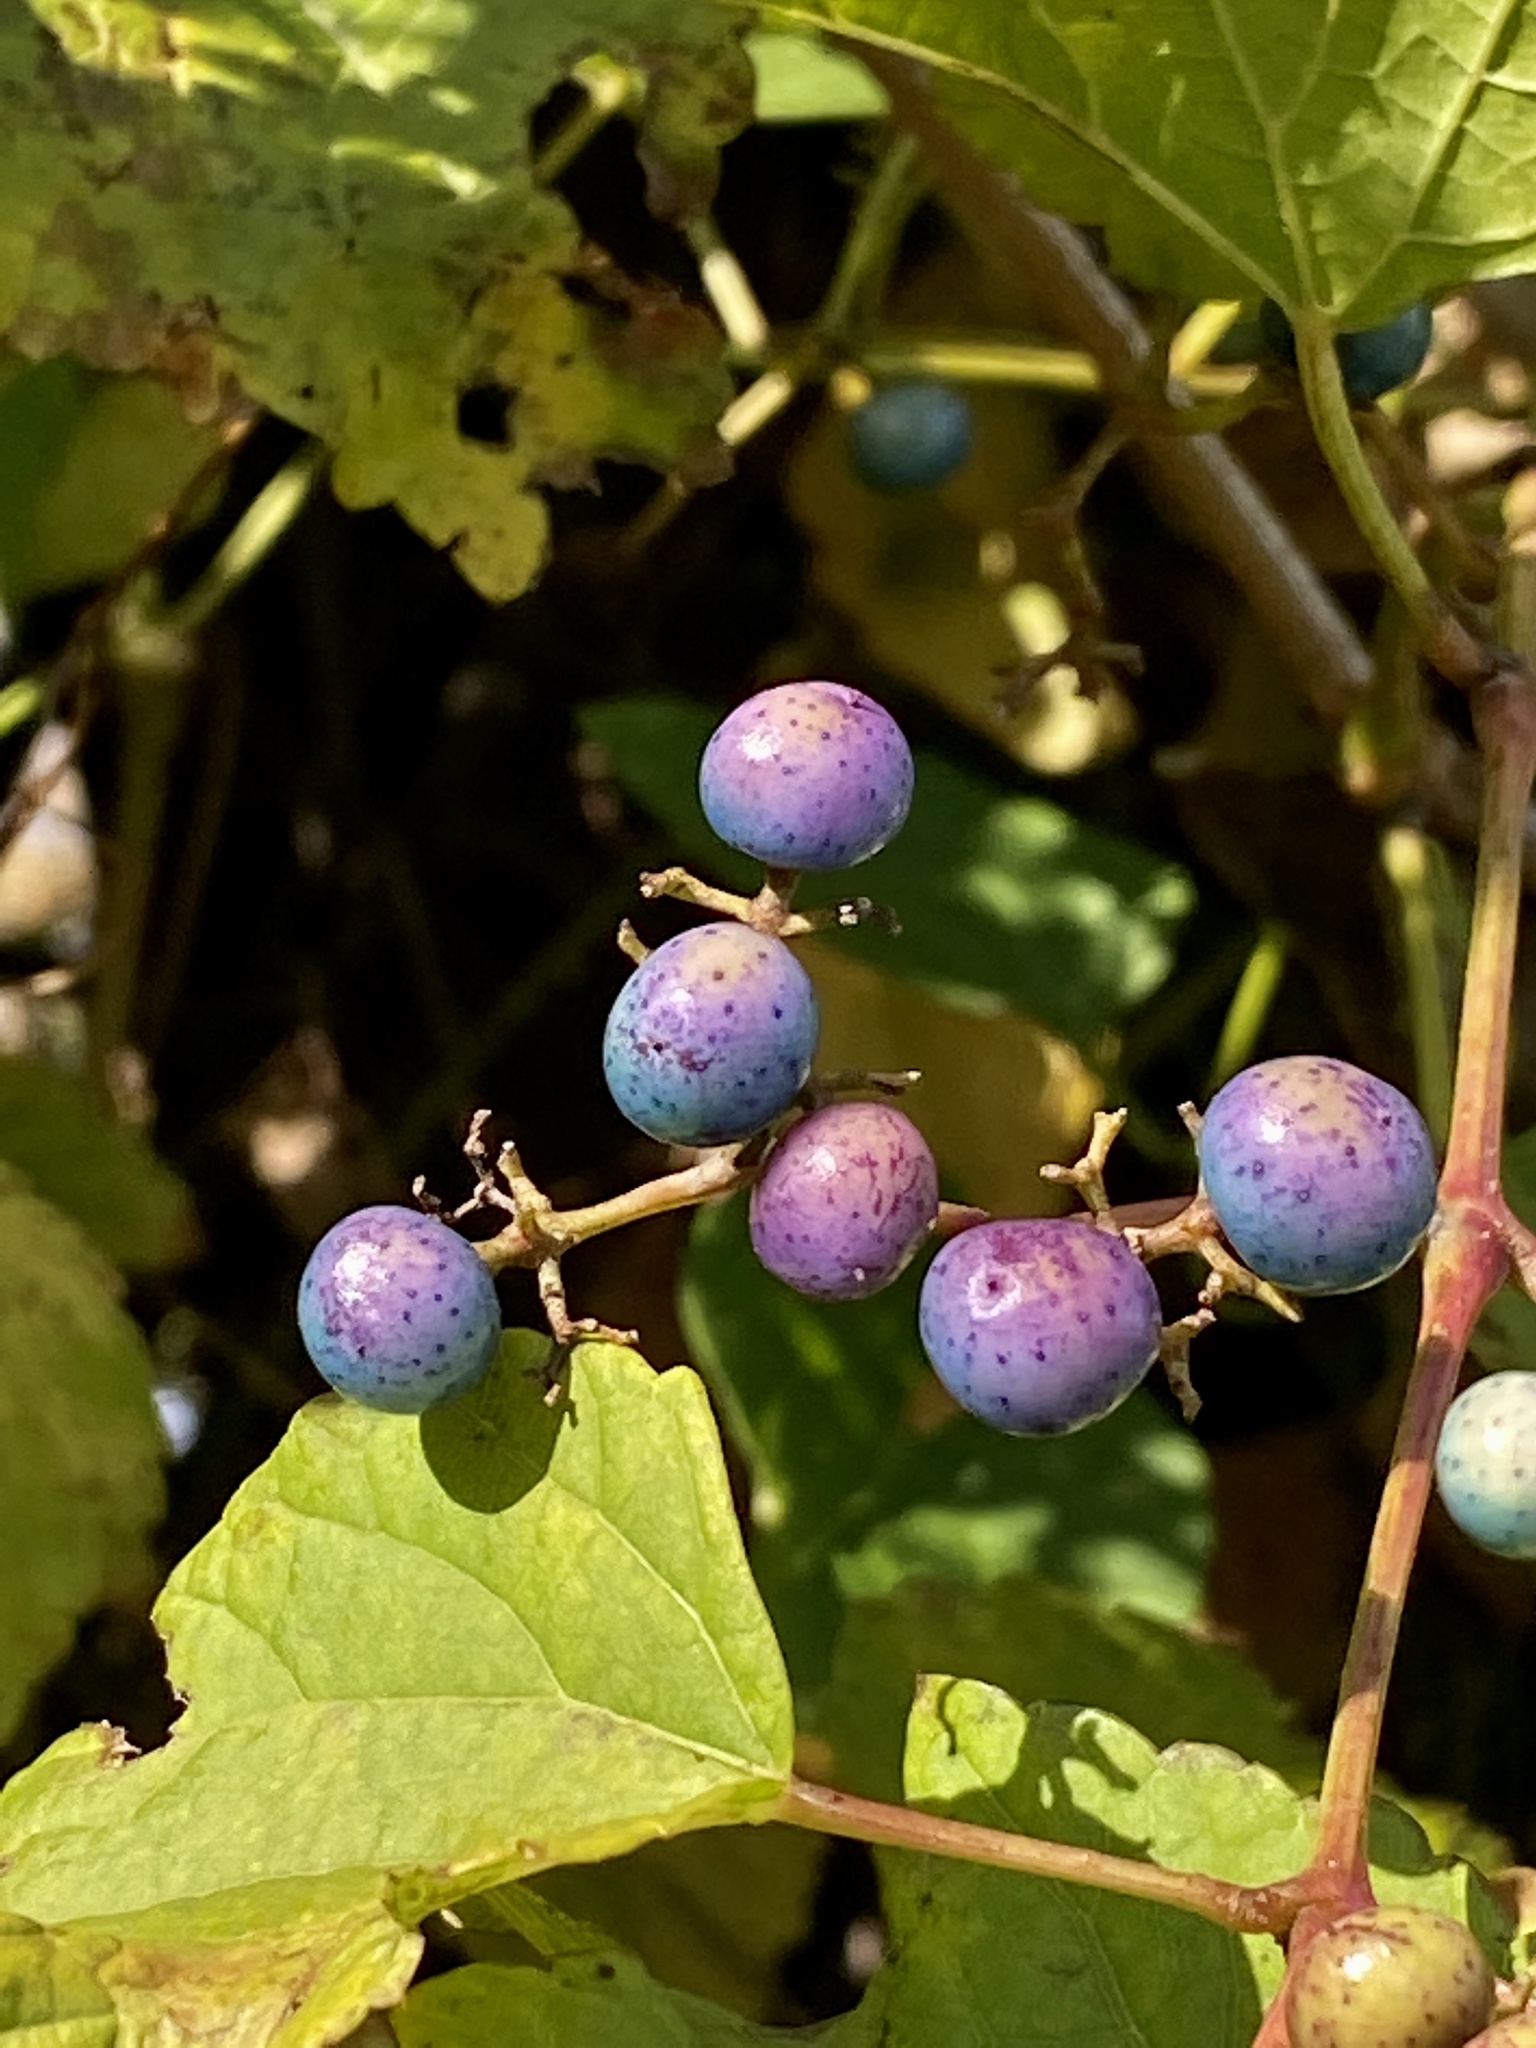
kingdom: Plantae
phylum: Tracheophyta
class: Magnoliopsida
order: Vitales
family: Vitaceae
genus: Ampelopsis
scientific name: Ampelopsis glandulosa
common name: Amur peppervine
